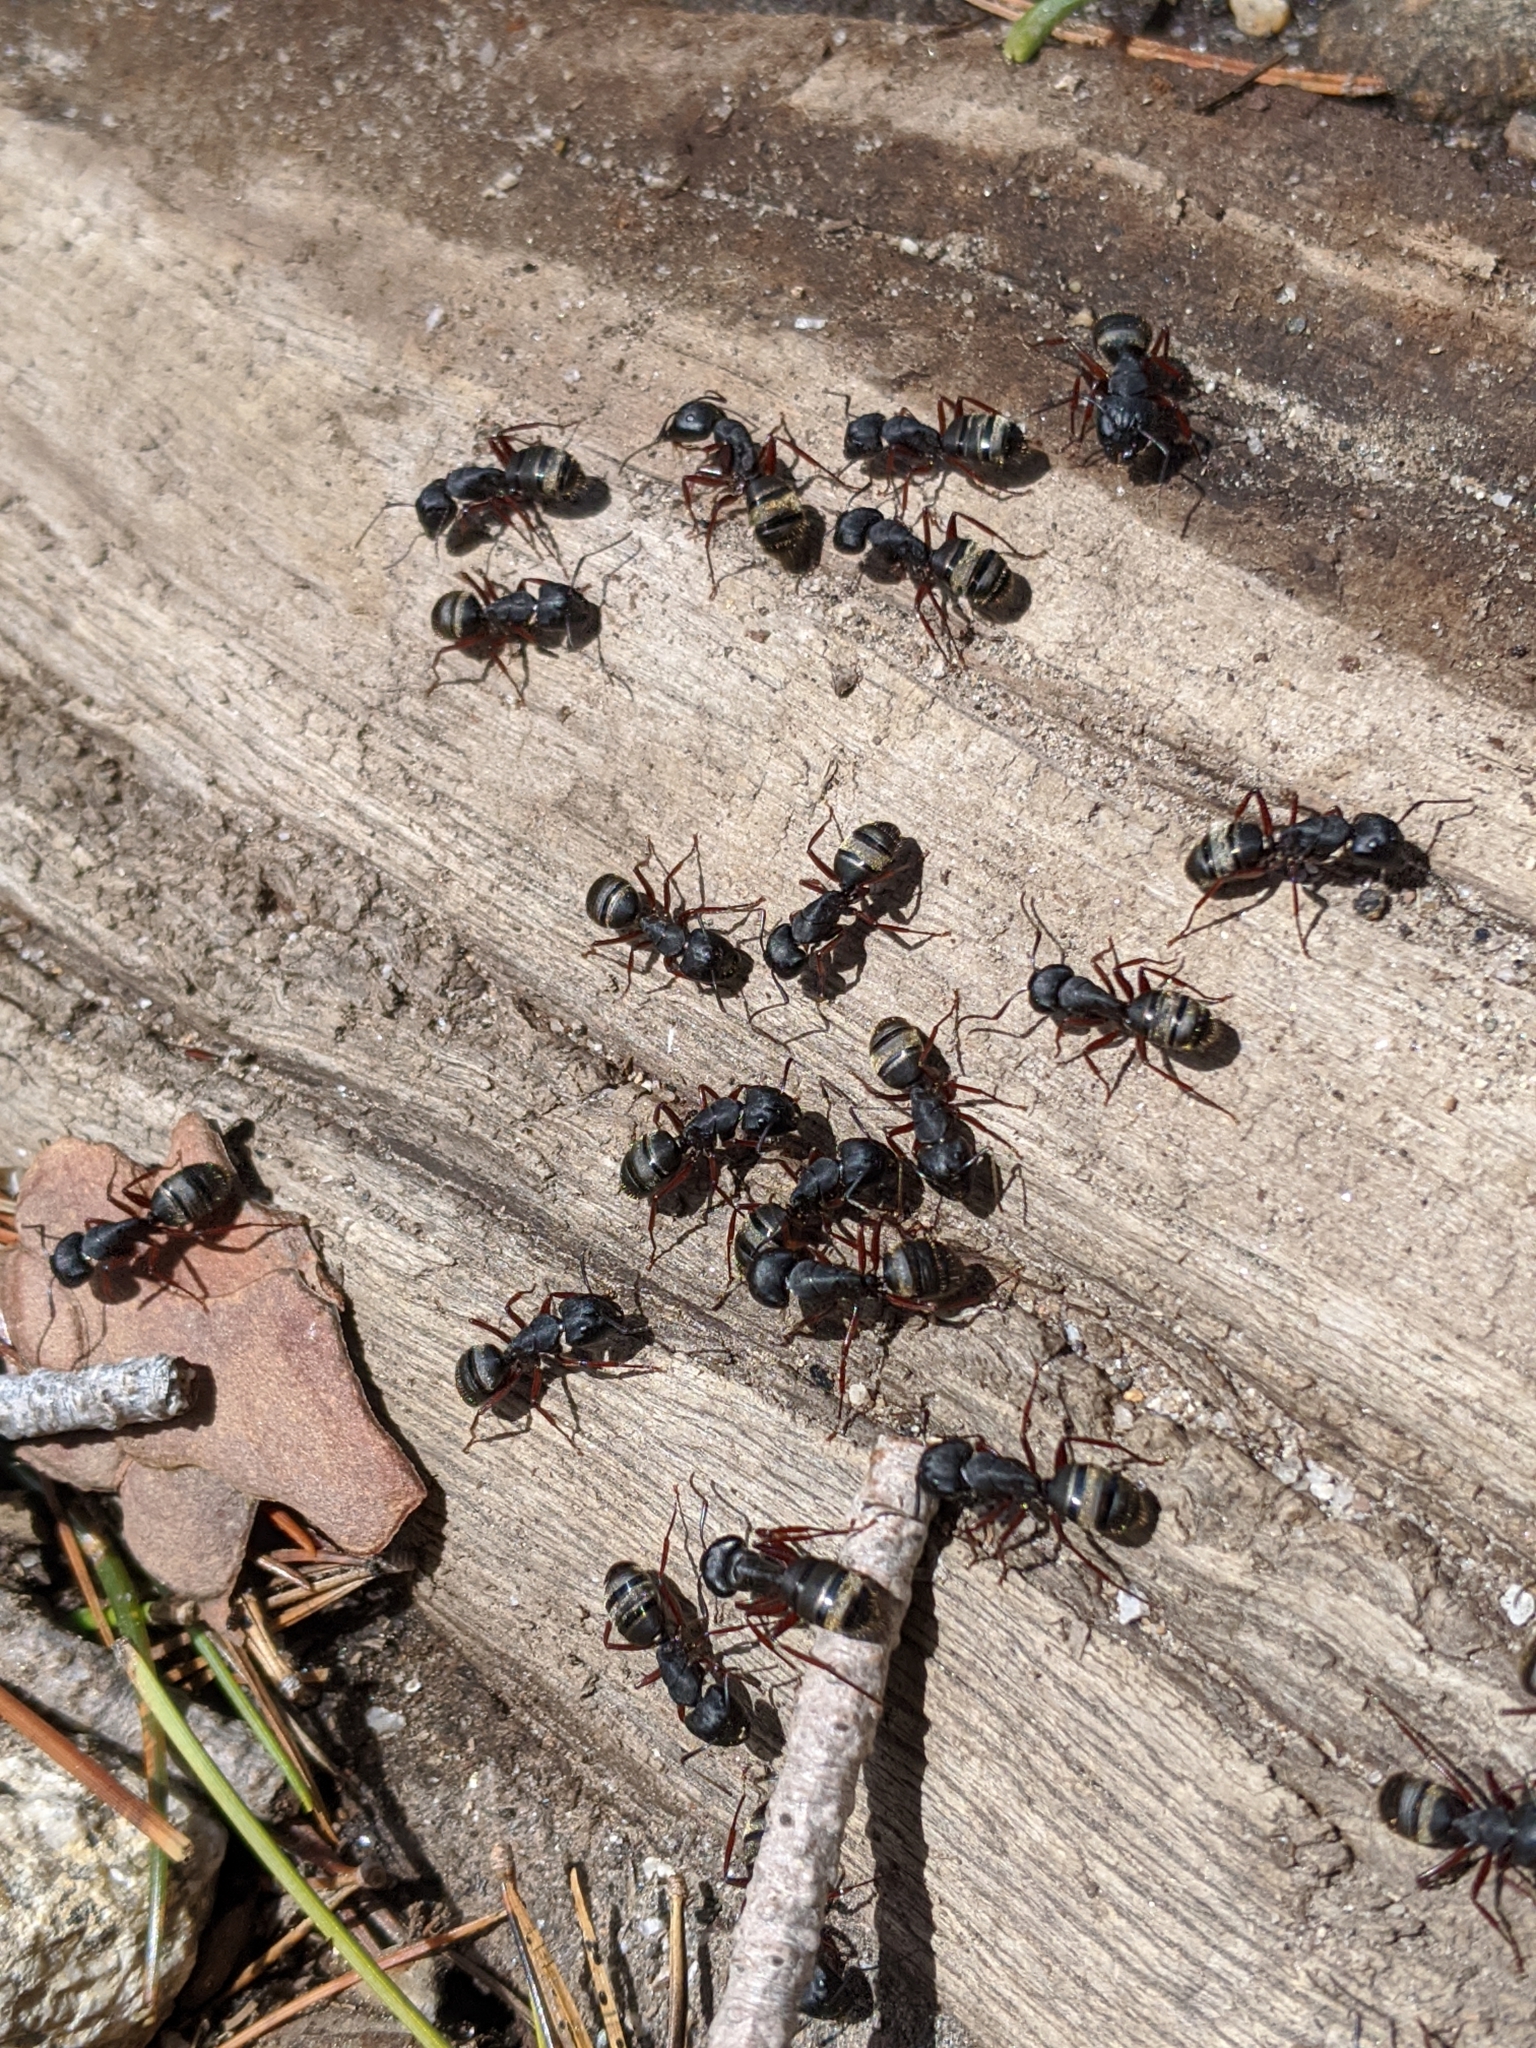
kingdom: Animalia
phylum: Arthropoda
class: Insecta
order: Hymenoptera
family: Formicidae
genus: Camponotus
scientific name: Camponotus modoc
